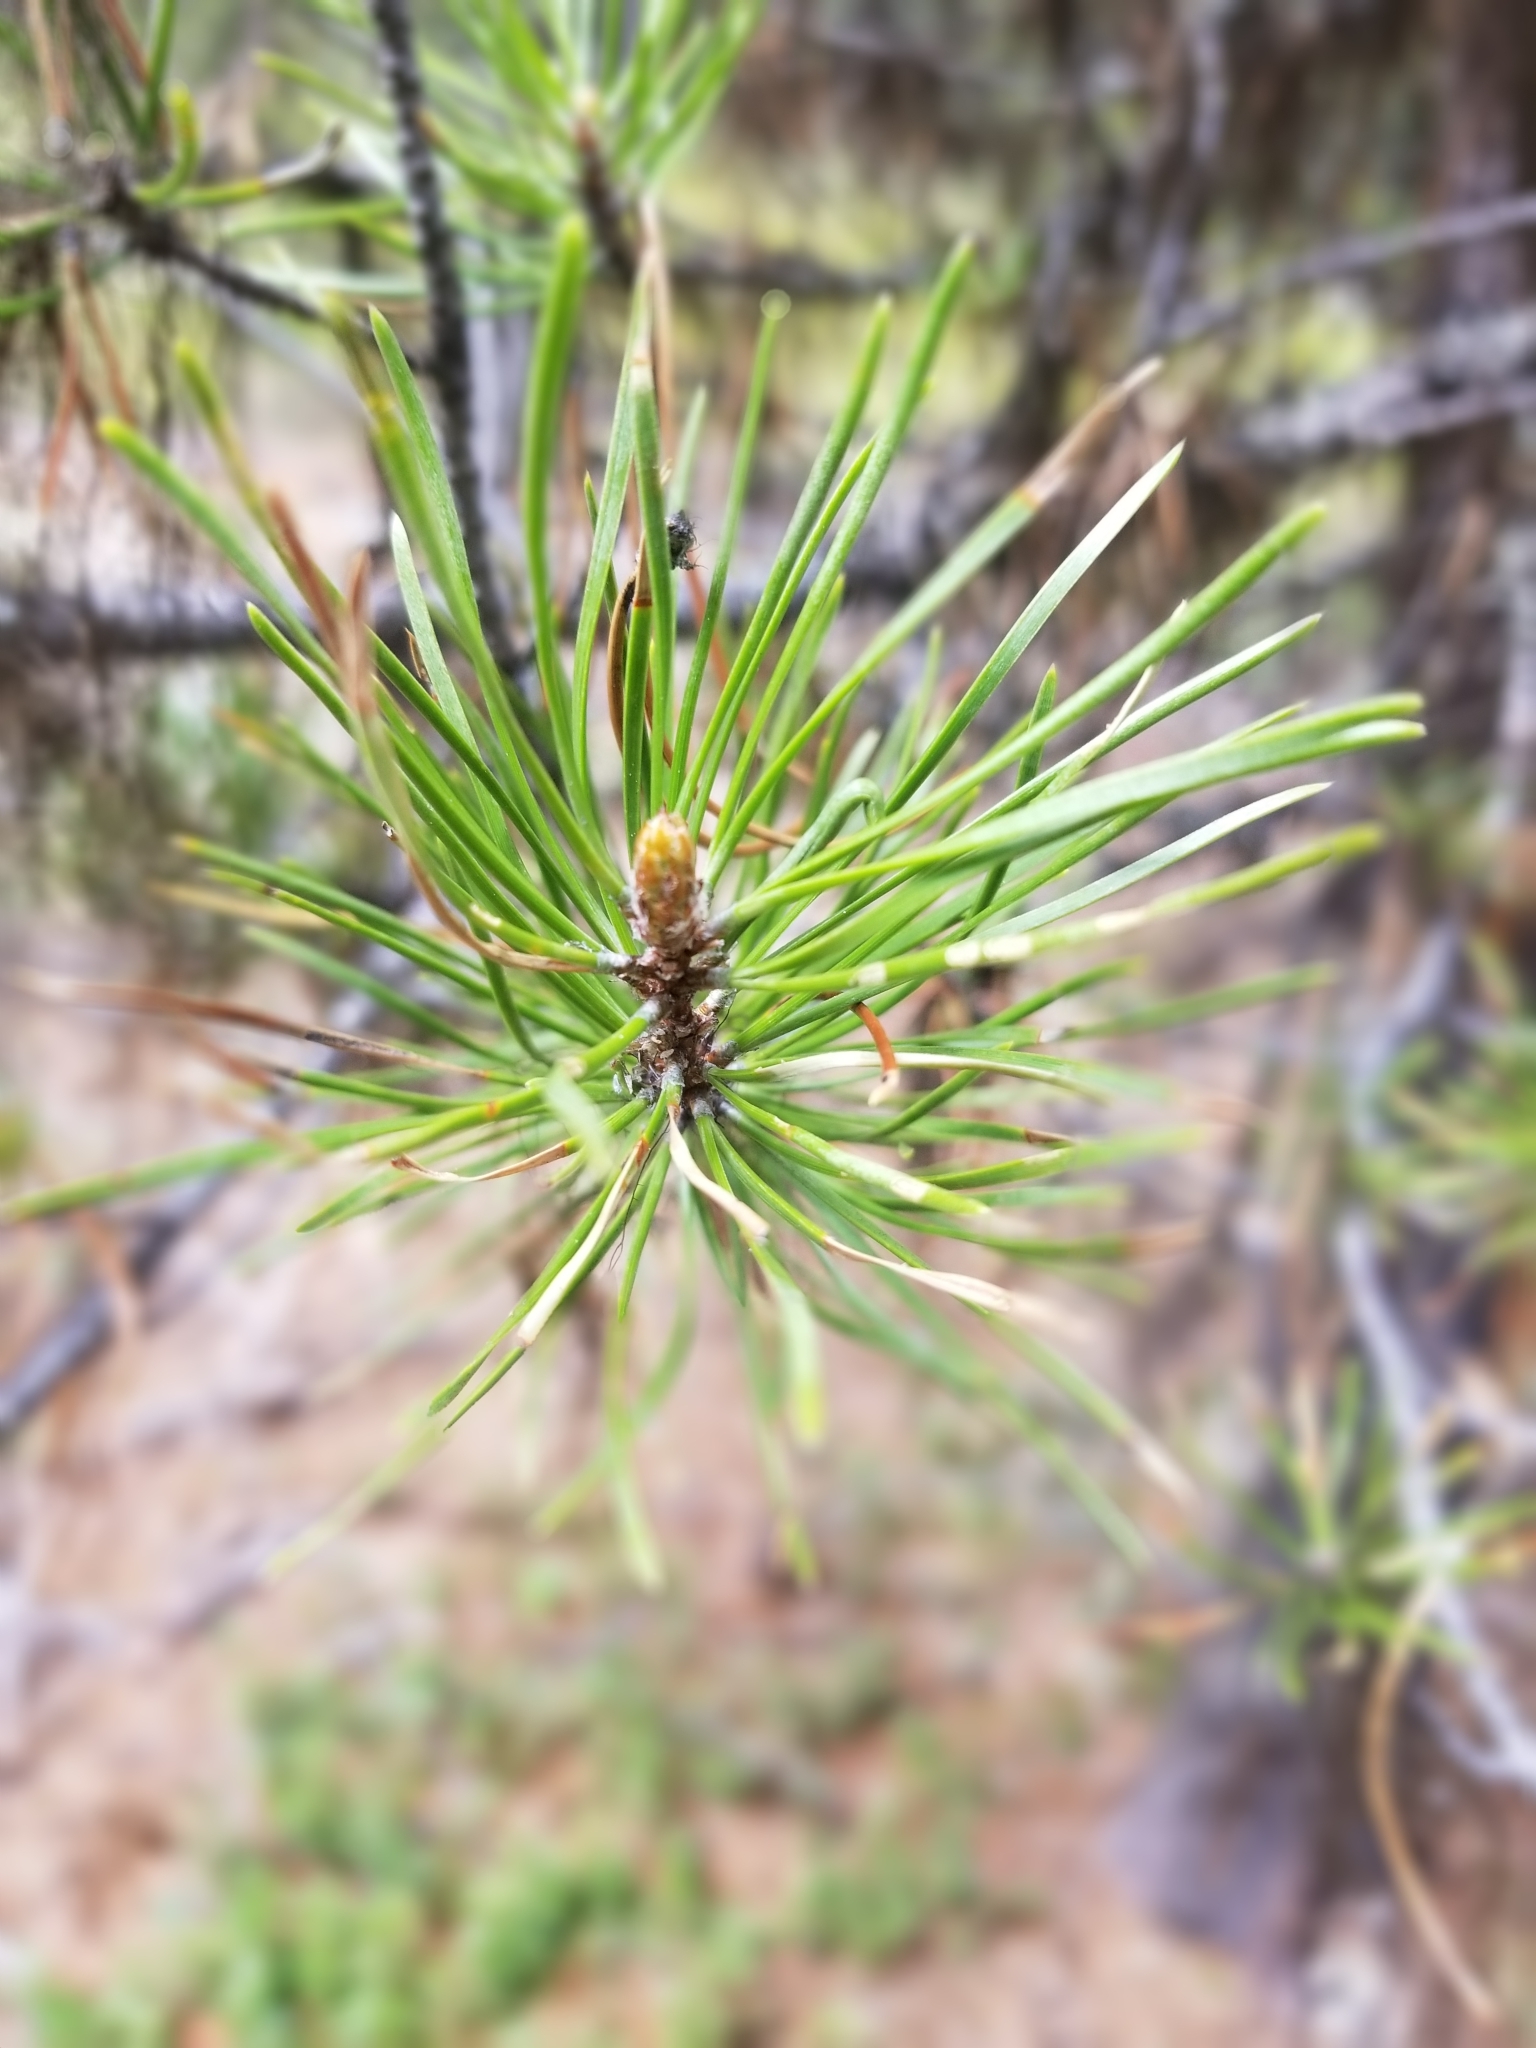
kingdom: Plantae
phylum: Tracheophyta
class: Pinopsida
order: Pinales
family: Pinaceae
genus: Pinus
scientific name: Pinus contorta
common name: Lodgepole pine
